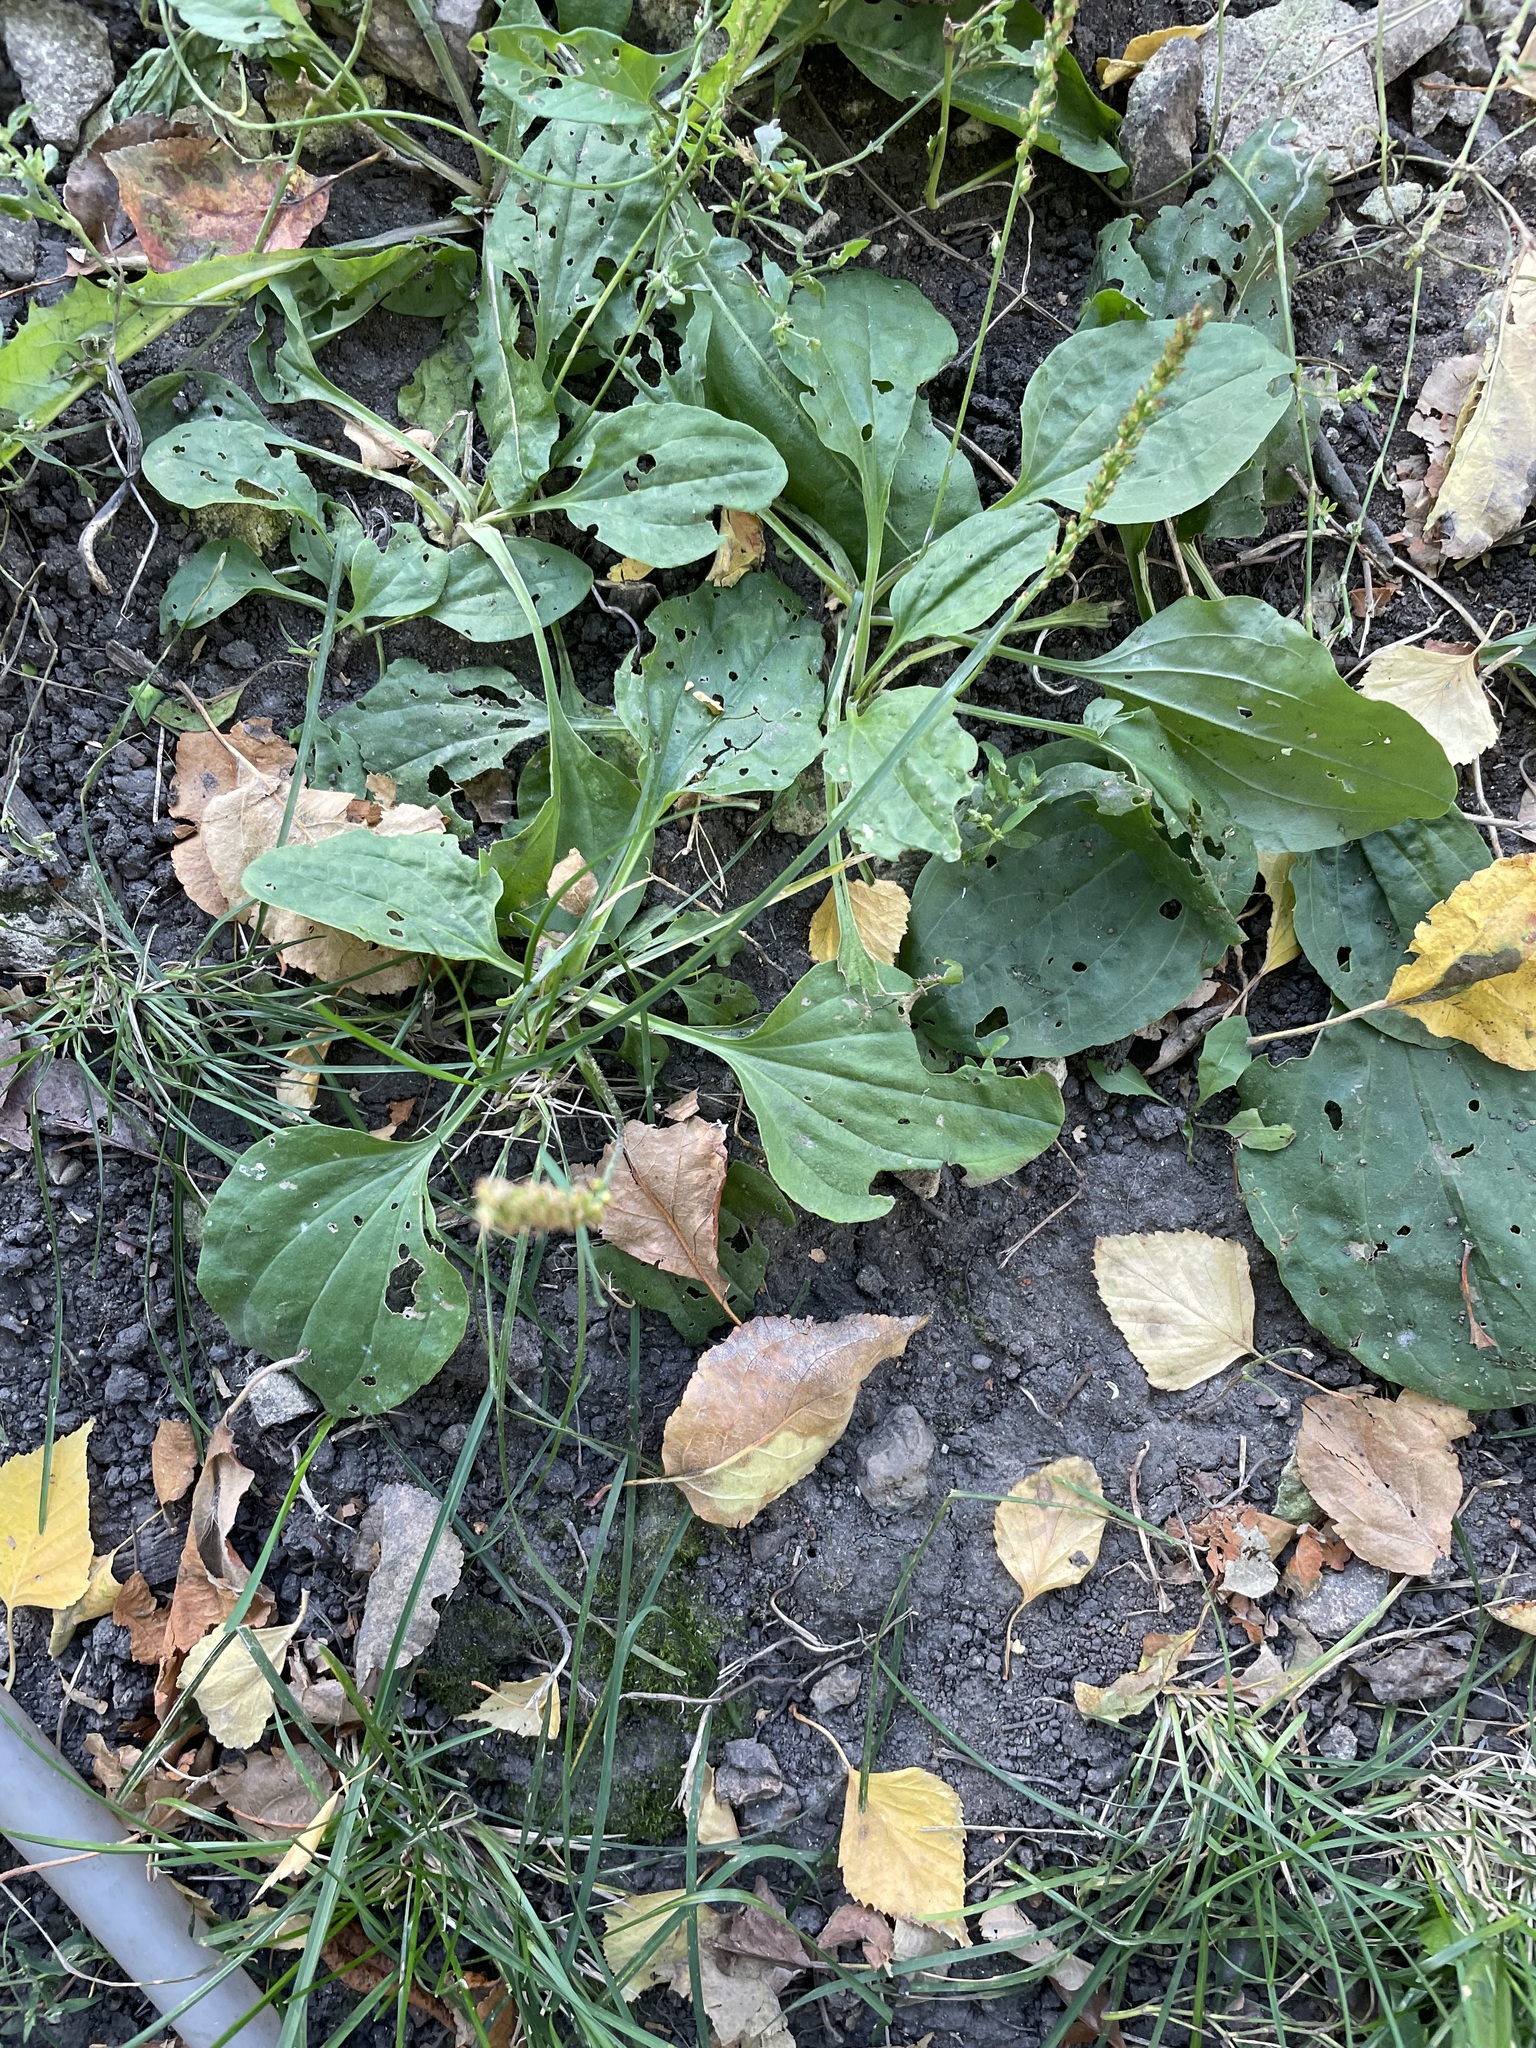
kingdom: Plantae
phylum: Tracheophyta
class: Magnoliopsida
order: Lamiales
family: Plantaginaceae
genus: Plantago
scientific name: Plantago major
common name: Common plantain
